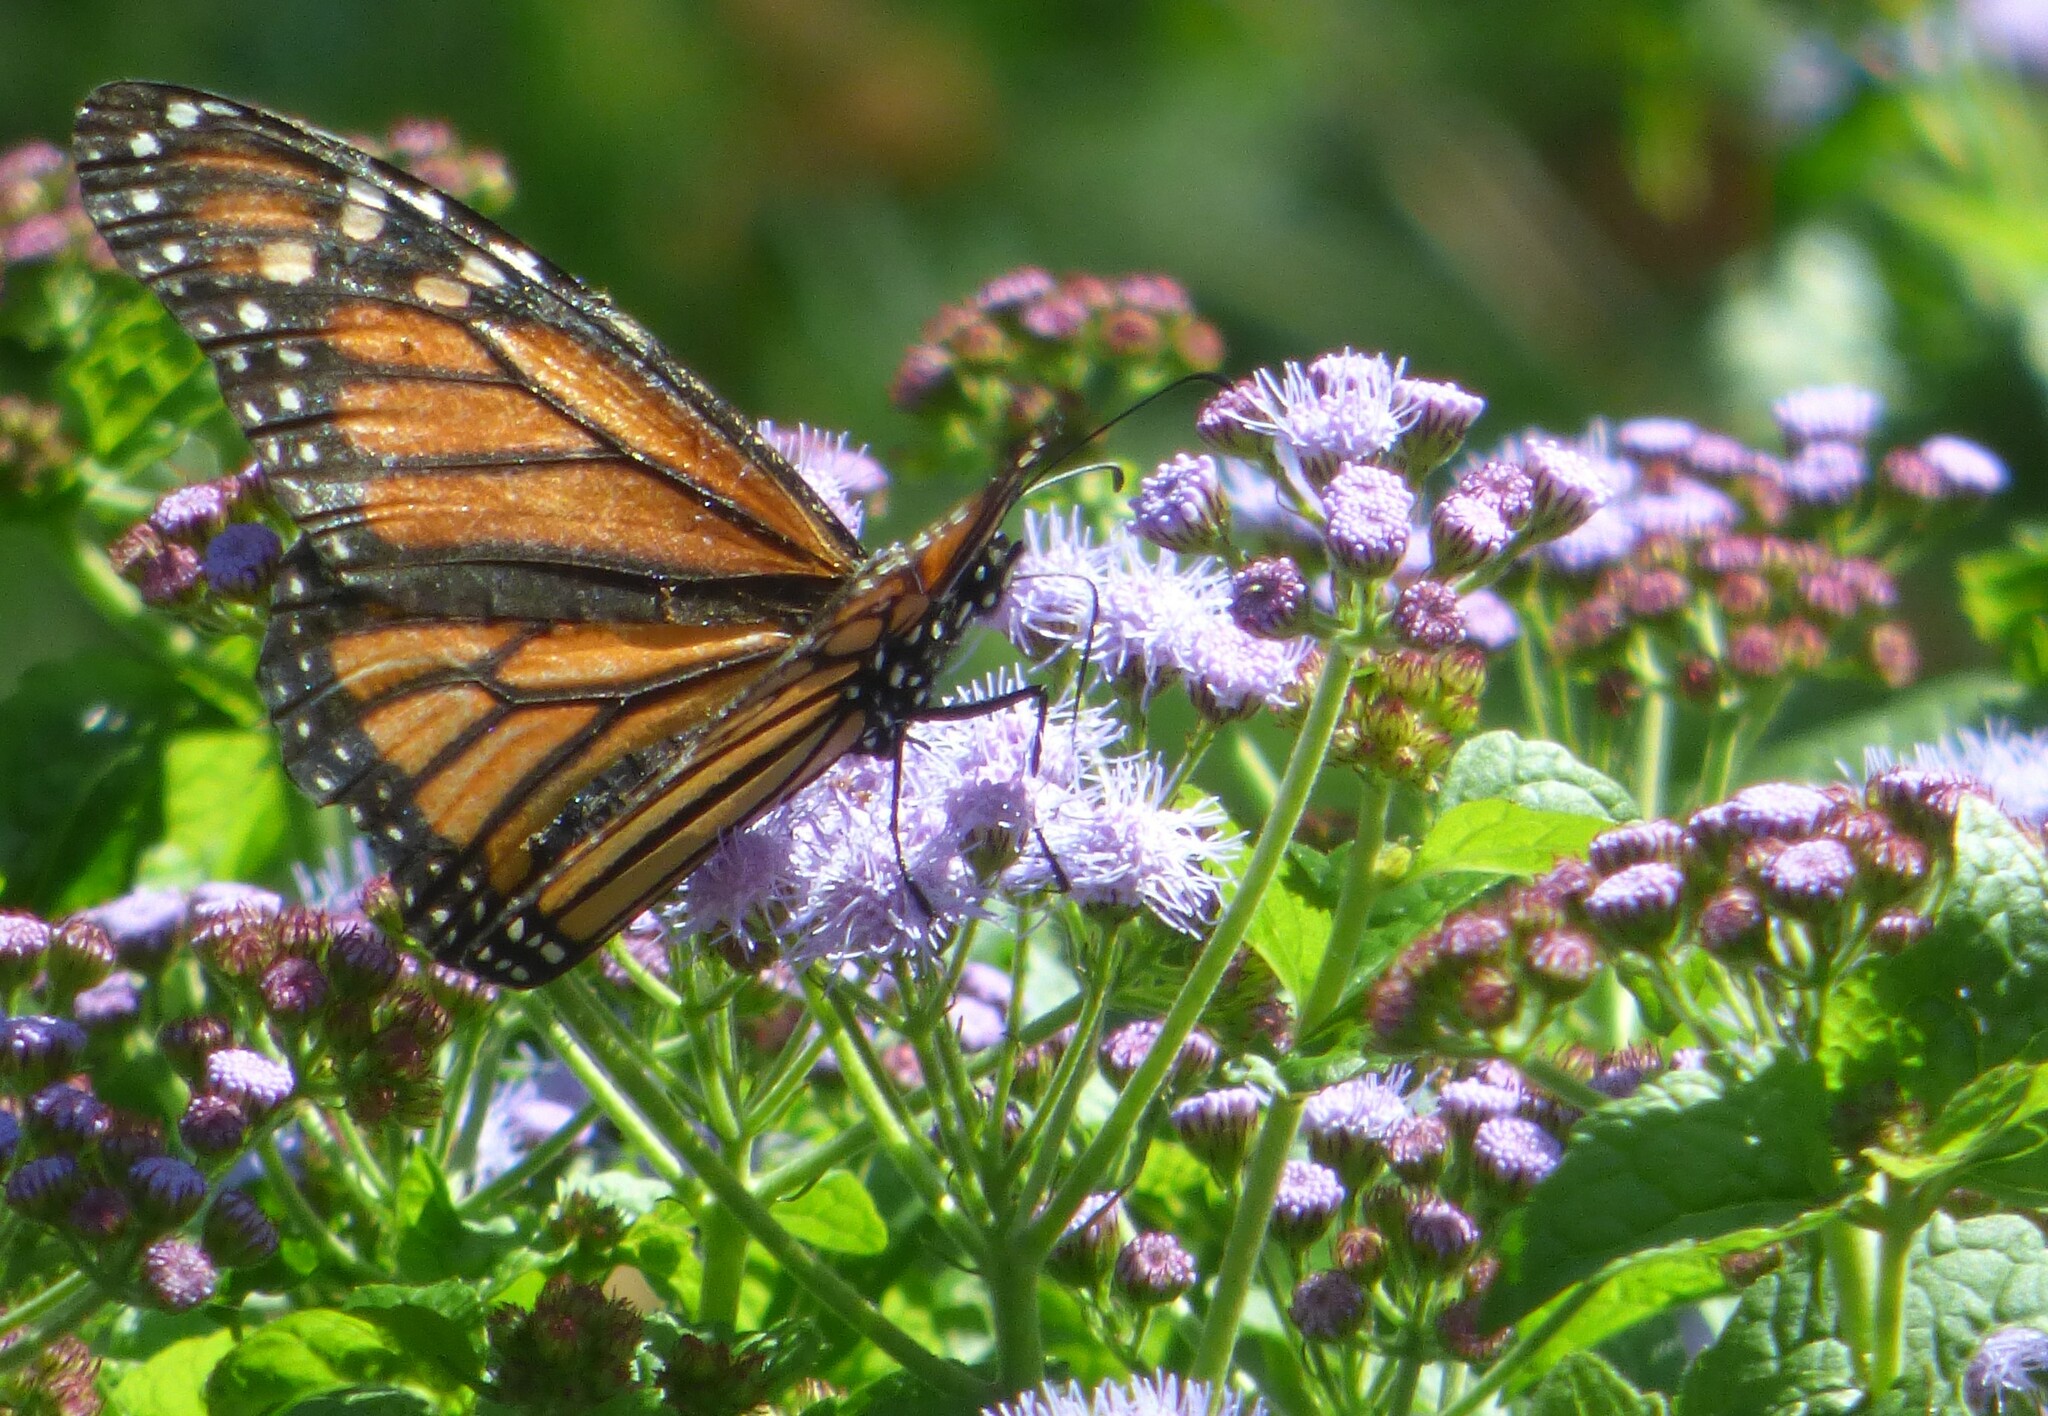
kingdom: Animalia
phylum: Arthropoda
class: Insecta
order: Lepidoptera
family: Nymphalidae
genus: Danaus
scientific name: Danaus plexippus
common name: Monarch
